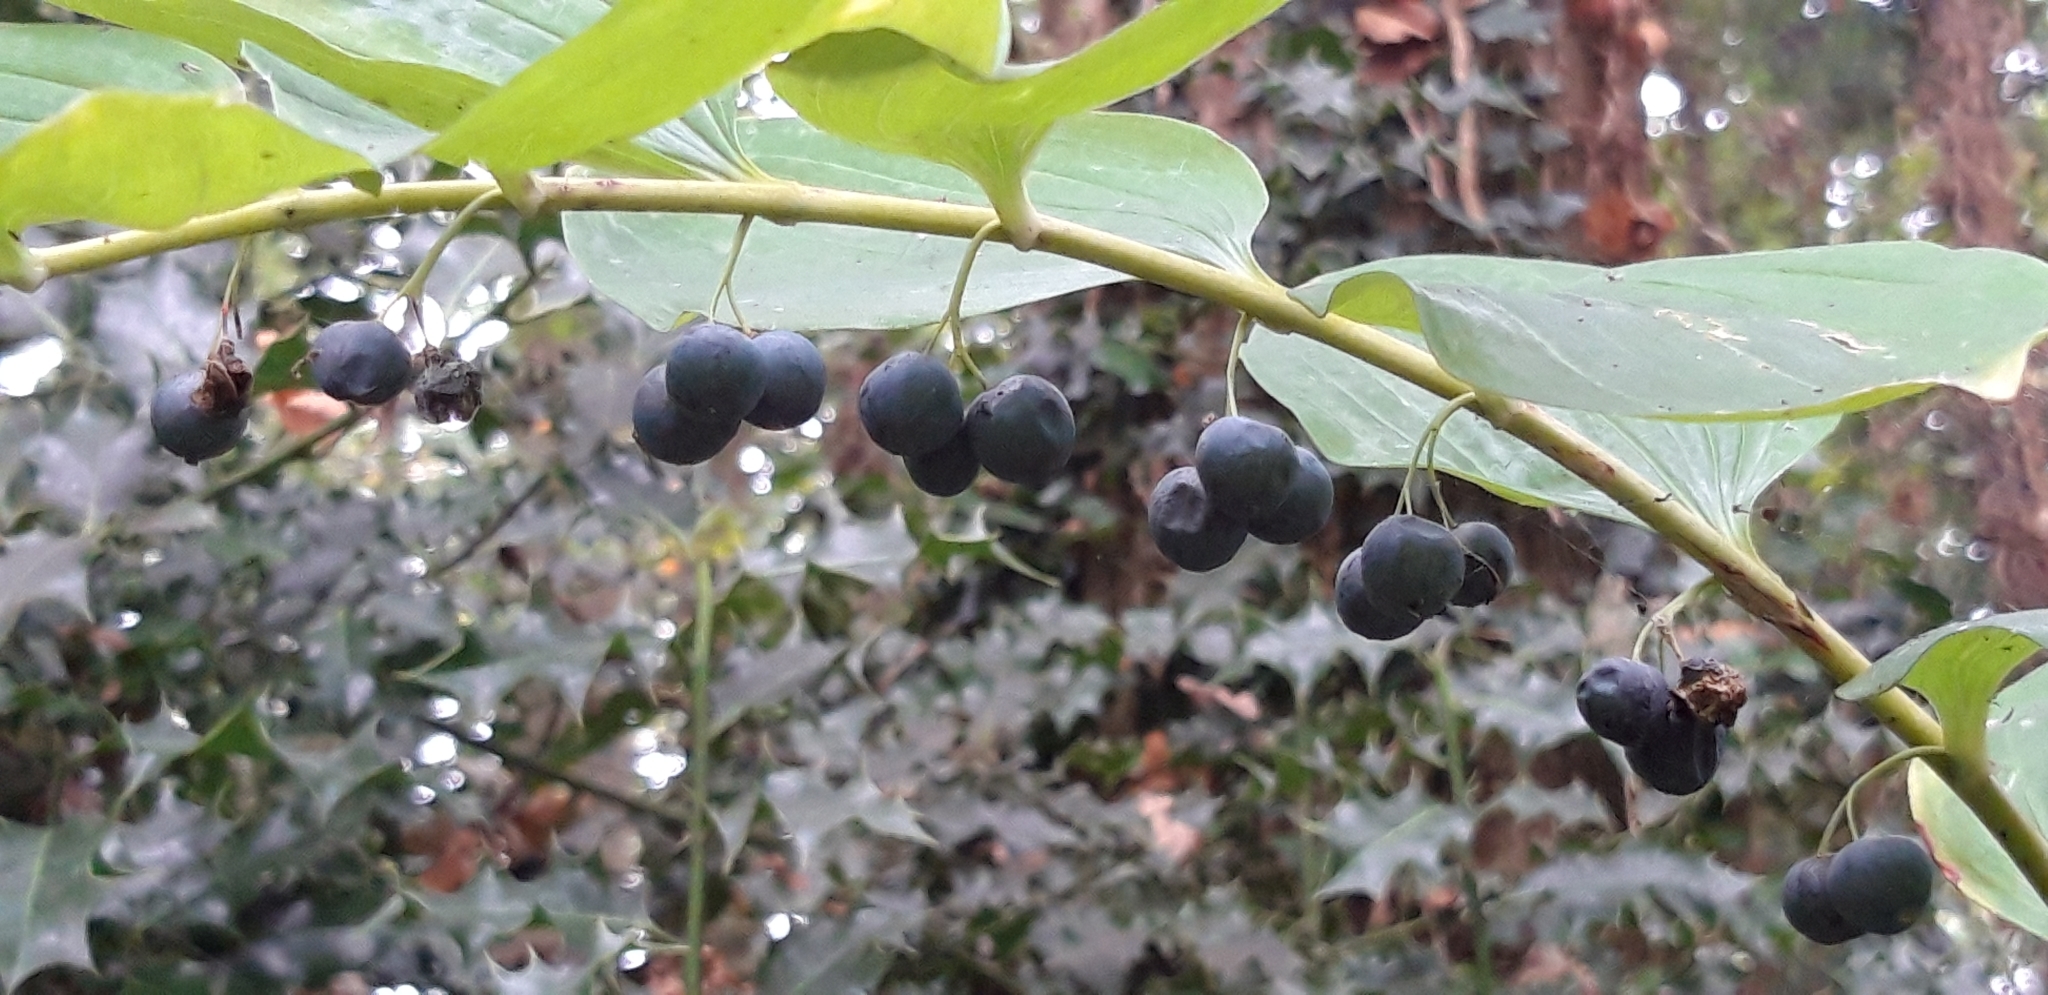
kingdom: Plantae
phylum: Tracheophyta
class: Liliopsida
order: Asparagales
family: Asparagaceae
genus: Polygonatum
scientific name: Polygonatum multiflorum
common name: Solomon's-seal
